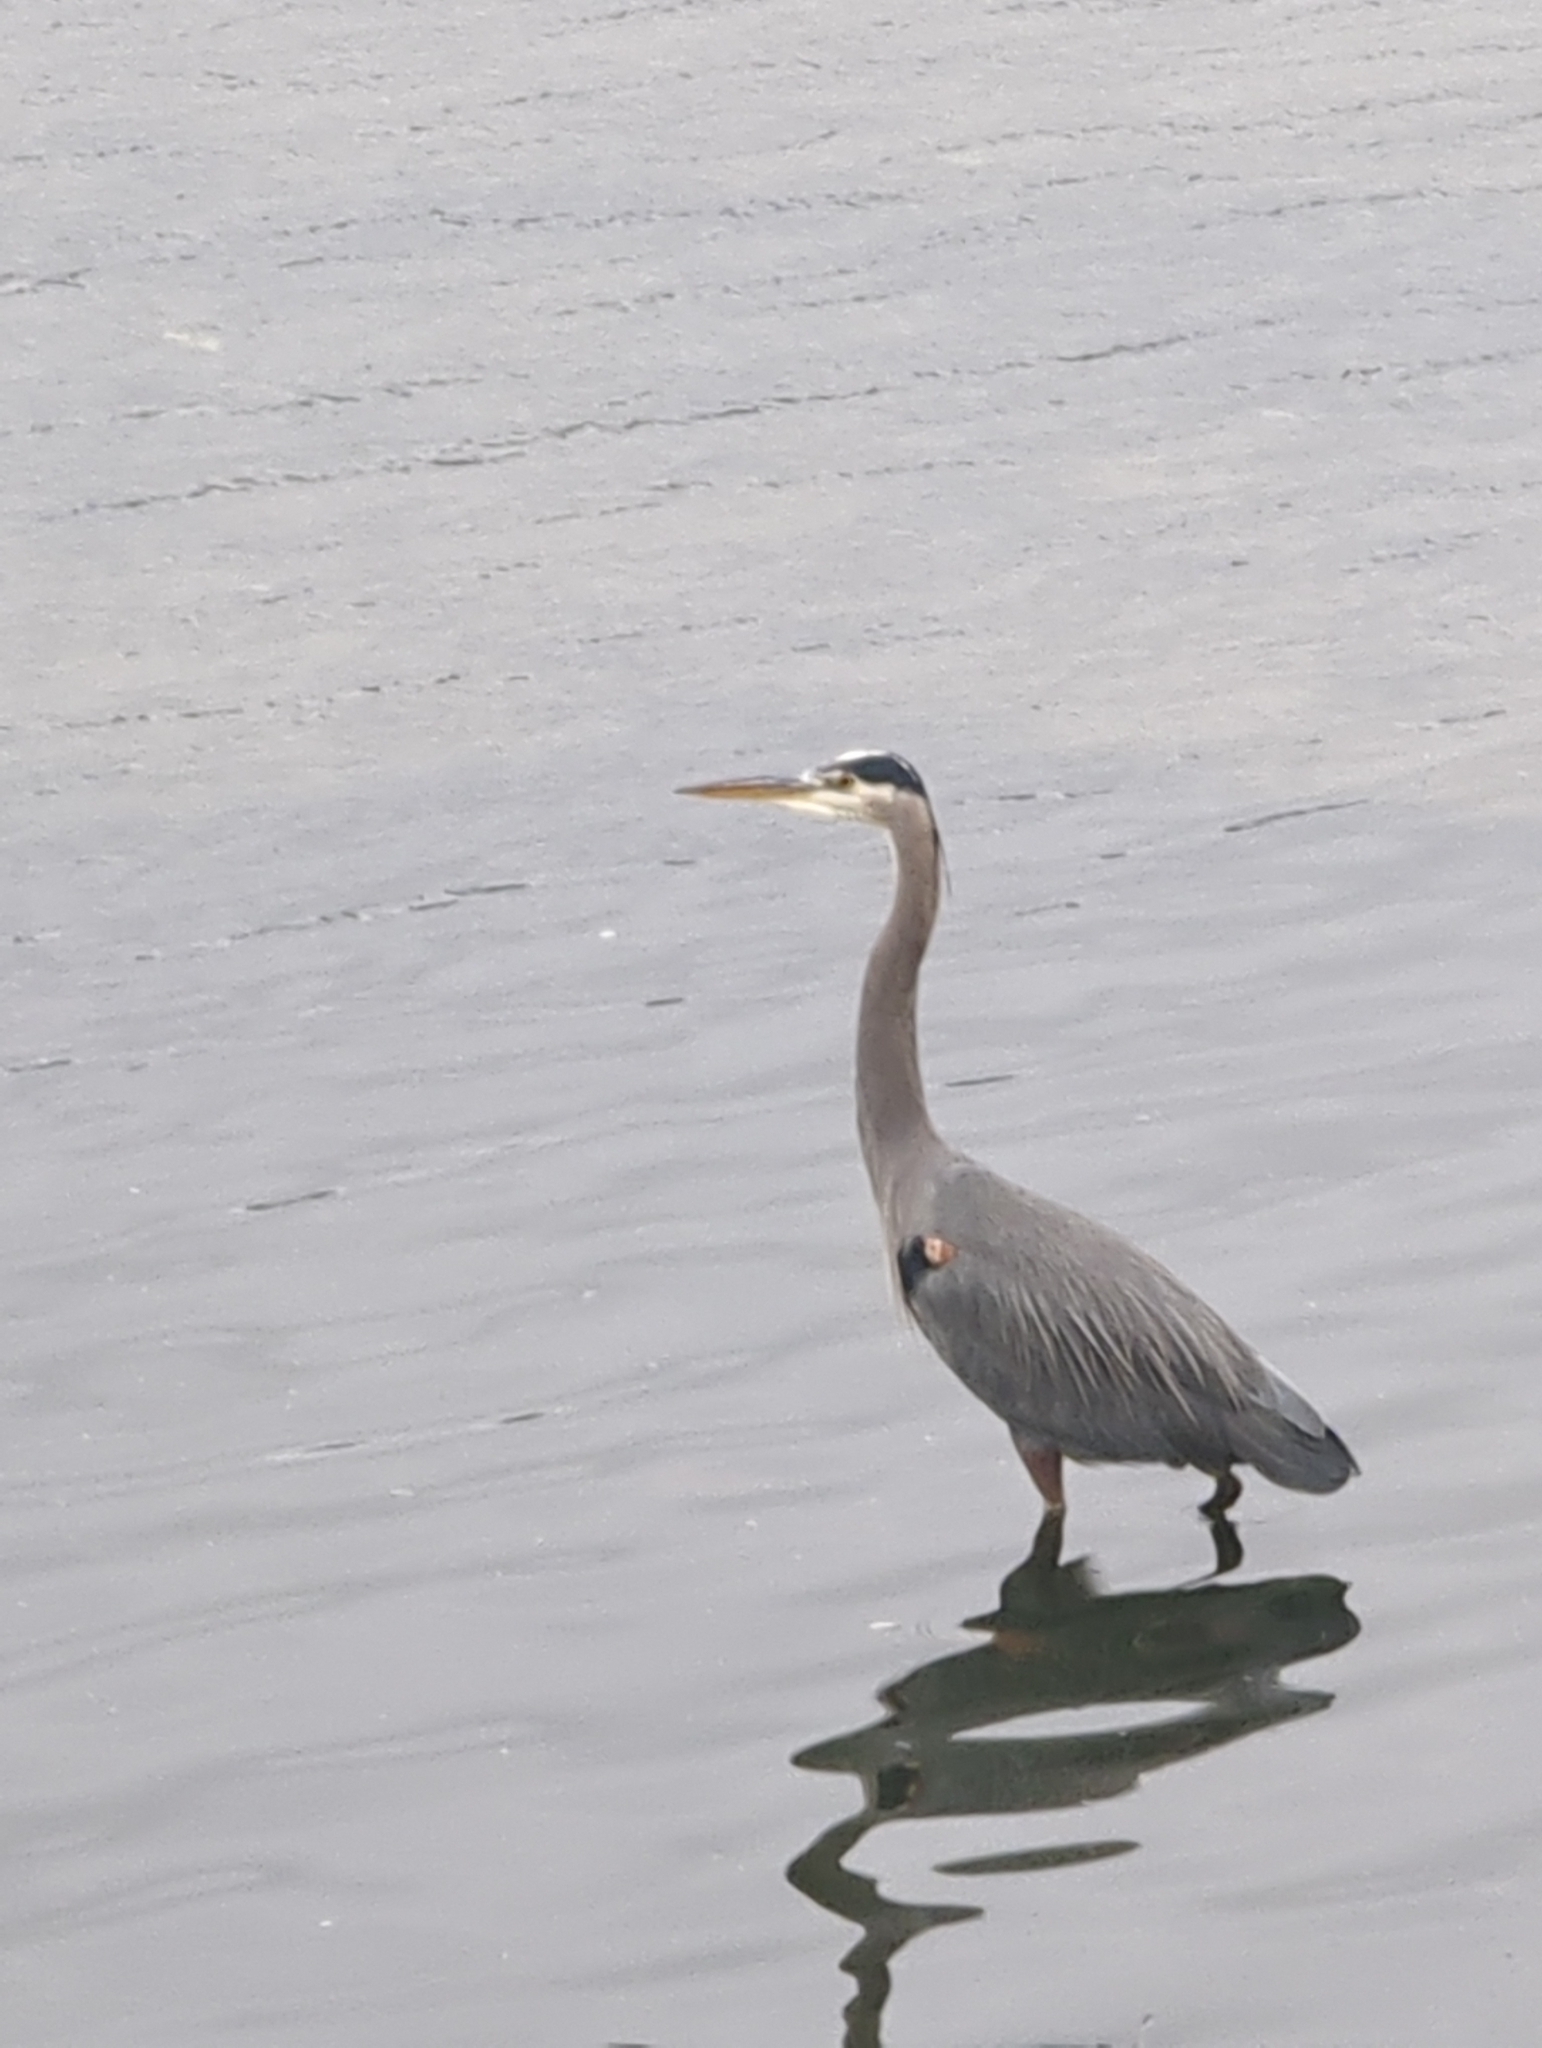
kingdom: Animalia
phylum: Chordata
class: Aves
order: Pelecaniformes
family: Ardeidae
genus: Ardea
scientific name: Ardea herodias
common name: Great blue heron
